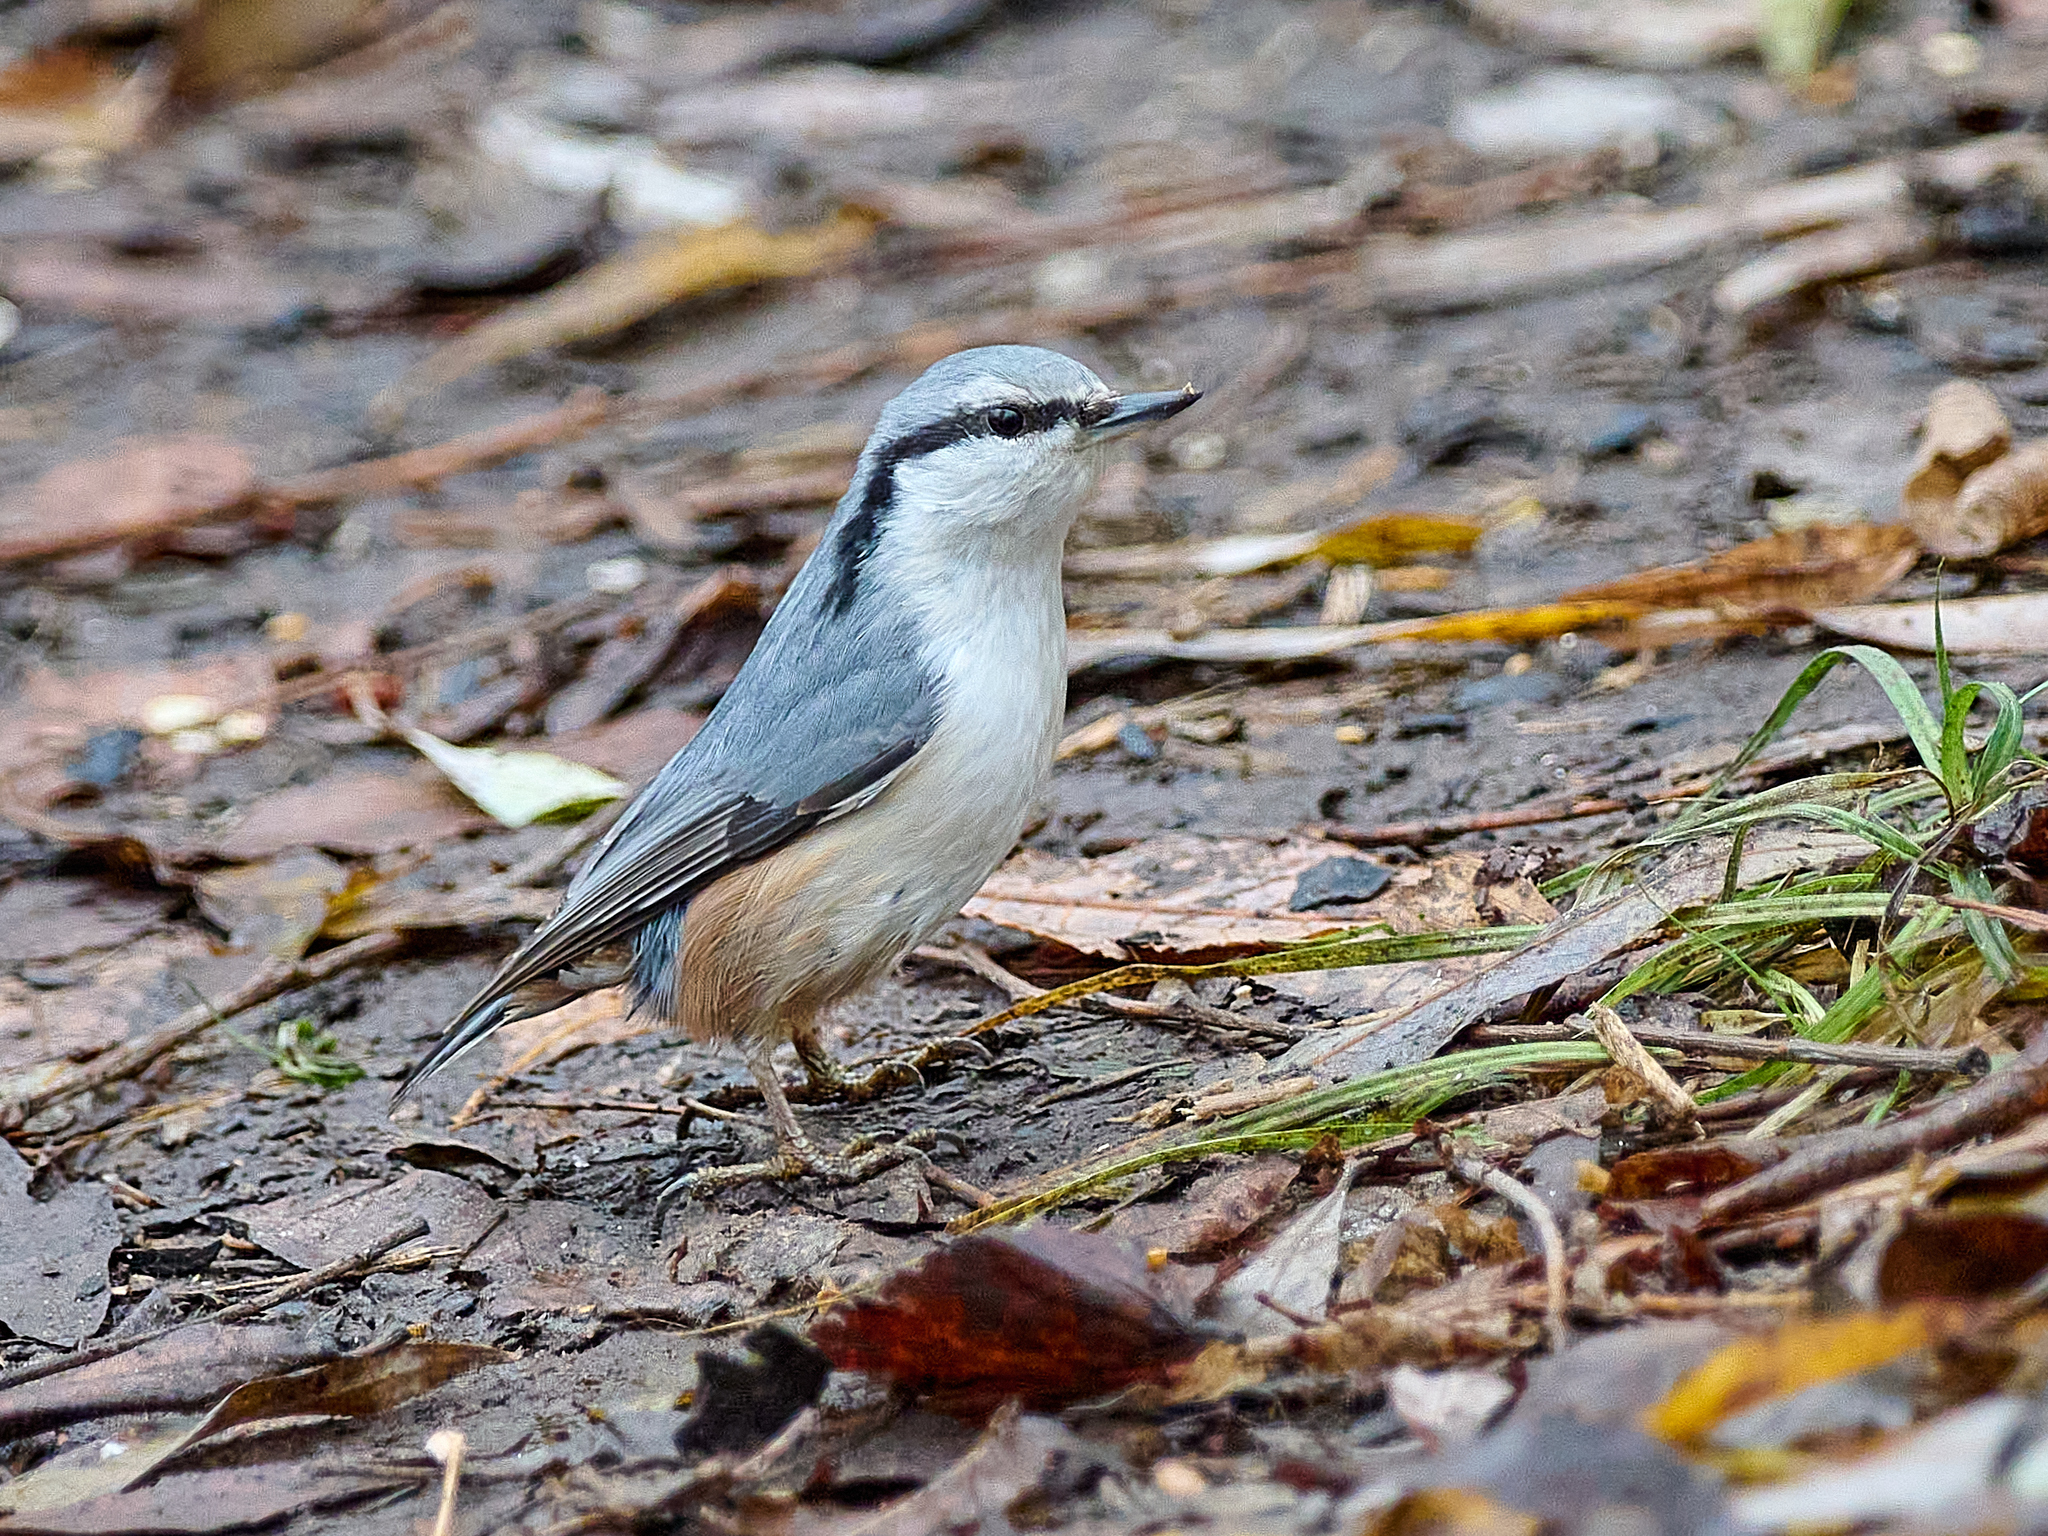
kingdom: Animalia
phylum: Chordata
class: Aves
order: Passeriformes
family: Sittidae
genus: Sitta
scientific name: Sitta europaea
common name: Eurasian nuthatch
